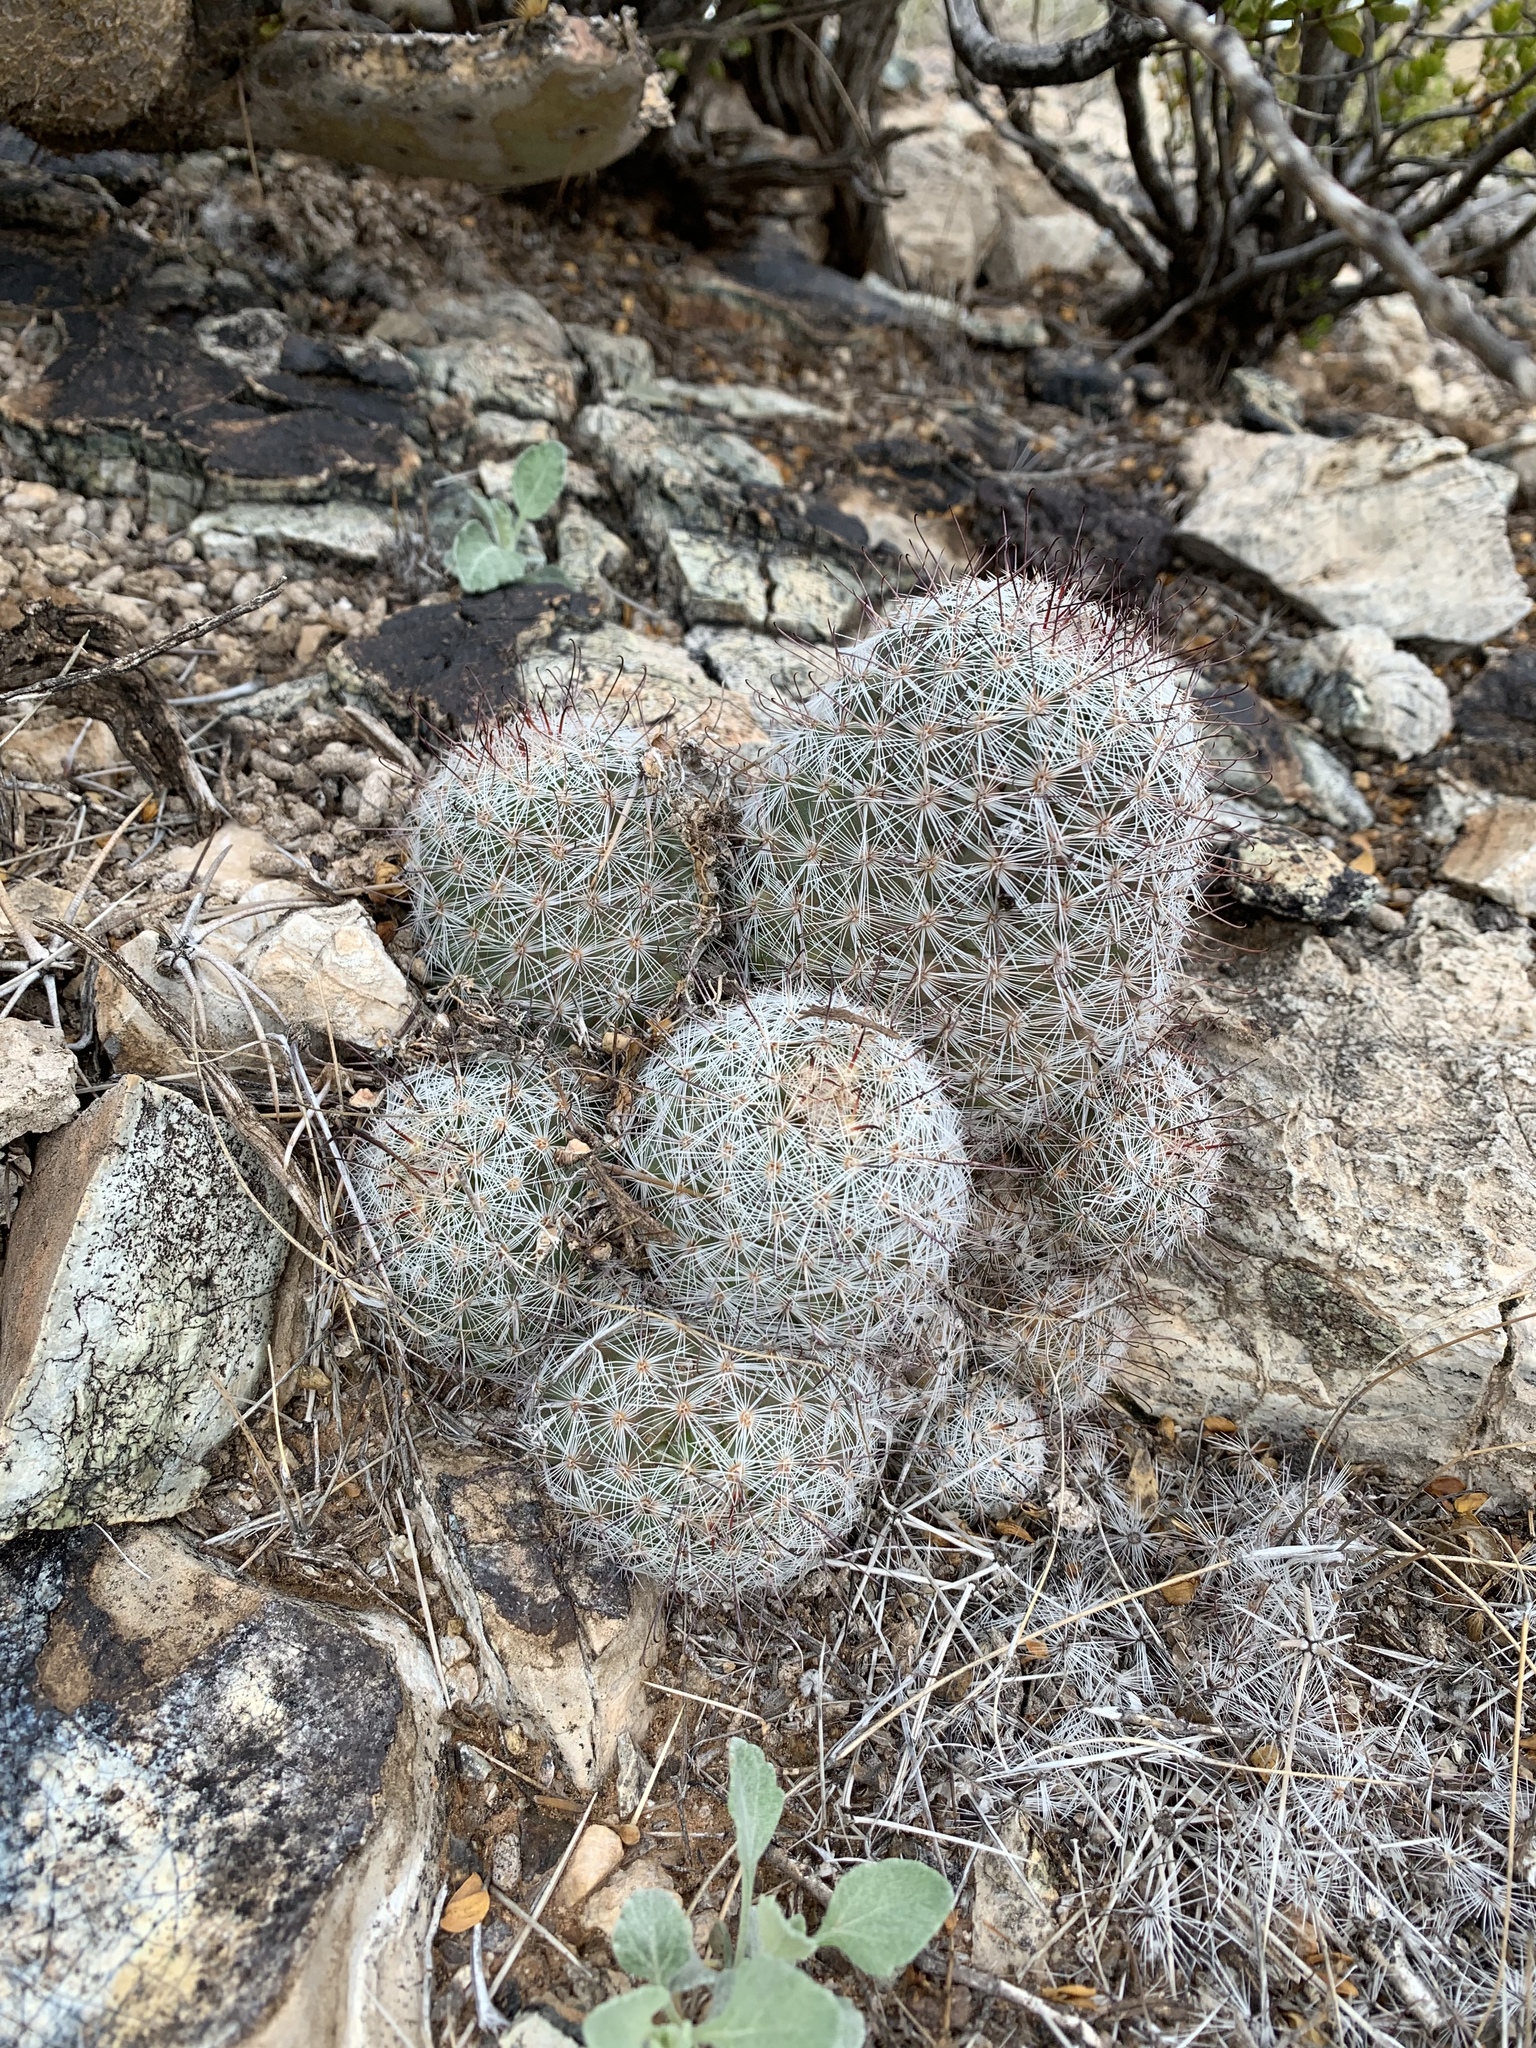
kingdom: Plantae
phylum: Tracheophyta
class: Magnoliopsida
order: Caryophyllales
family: Cactaceae
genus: Cochemiea
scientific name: Cochemiea grahamii
